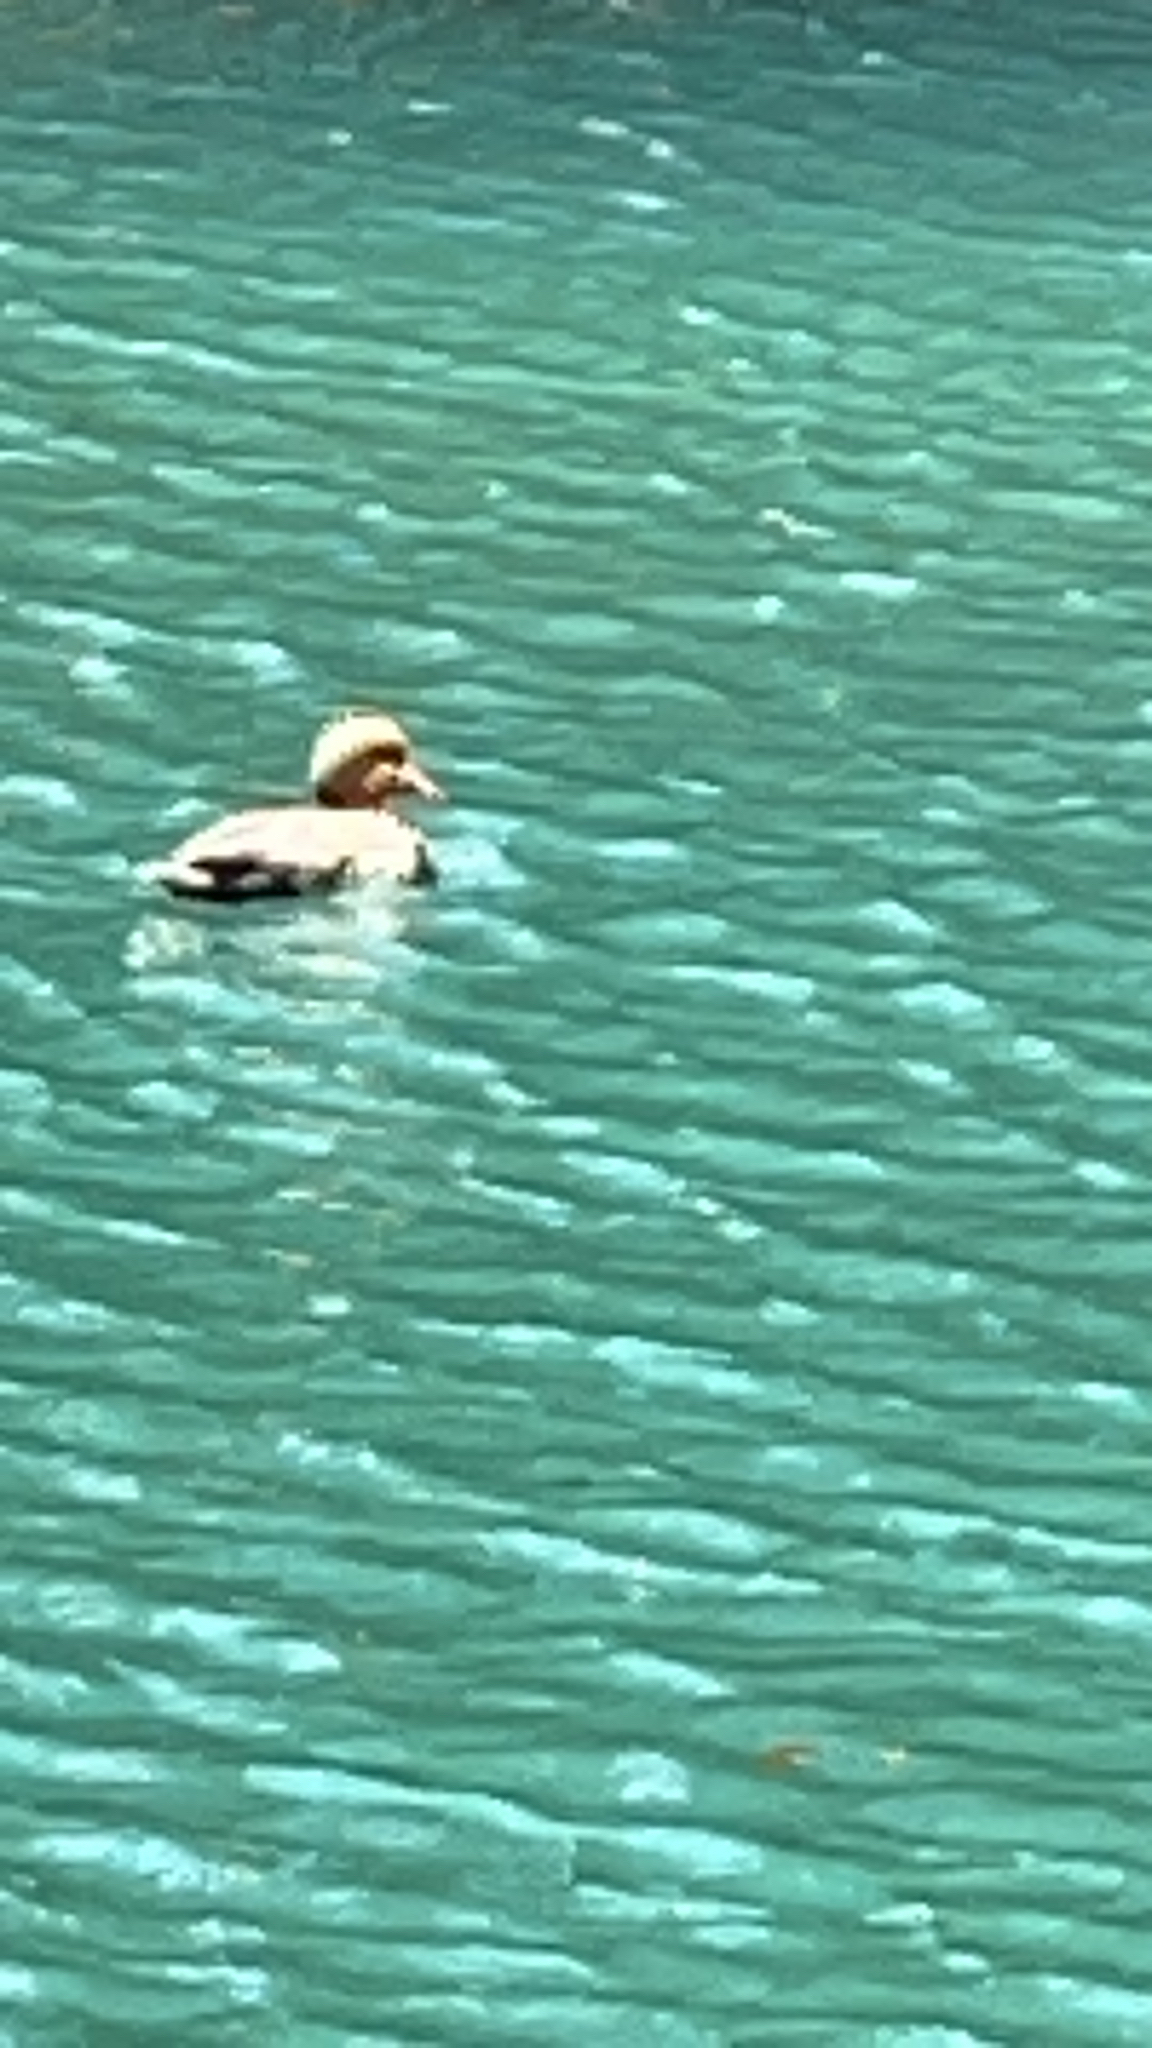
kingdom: Animalia
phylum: Chordata
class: Aves
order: Anseriformes
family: Anatidae
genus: Netta
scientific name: Netta rufina
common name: Red-crested pochard
